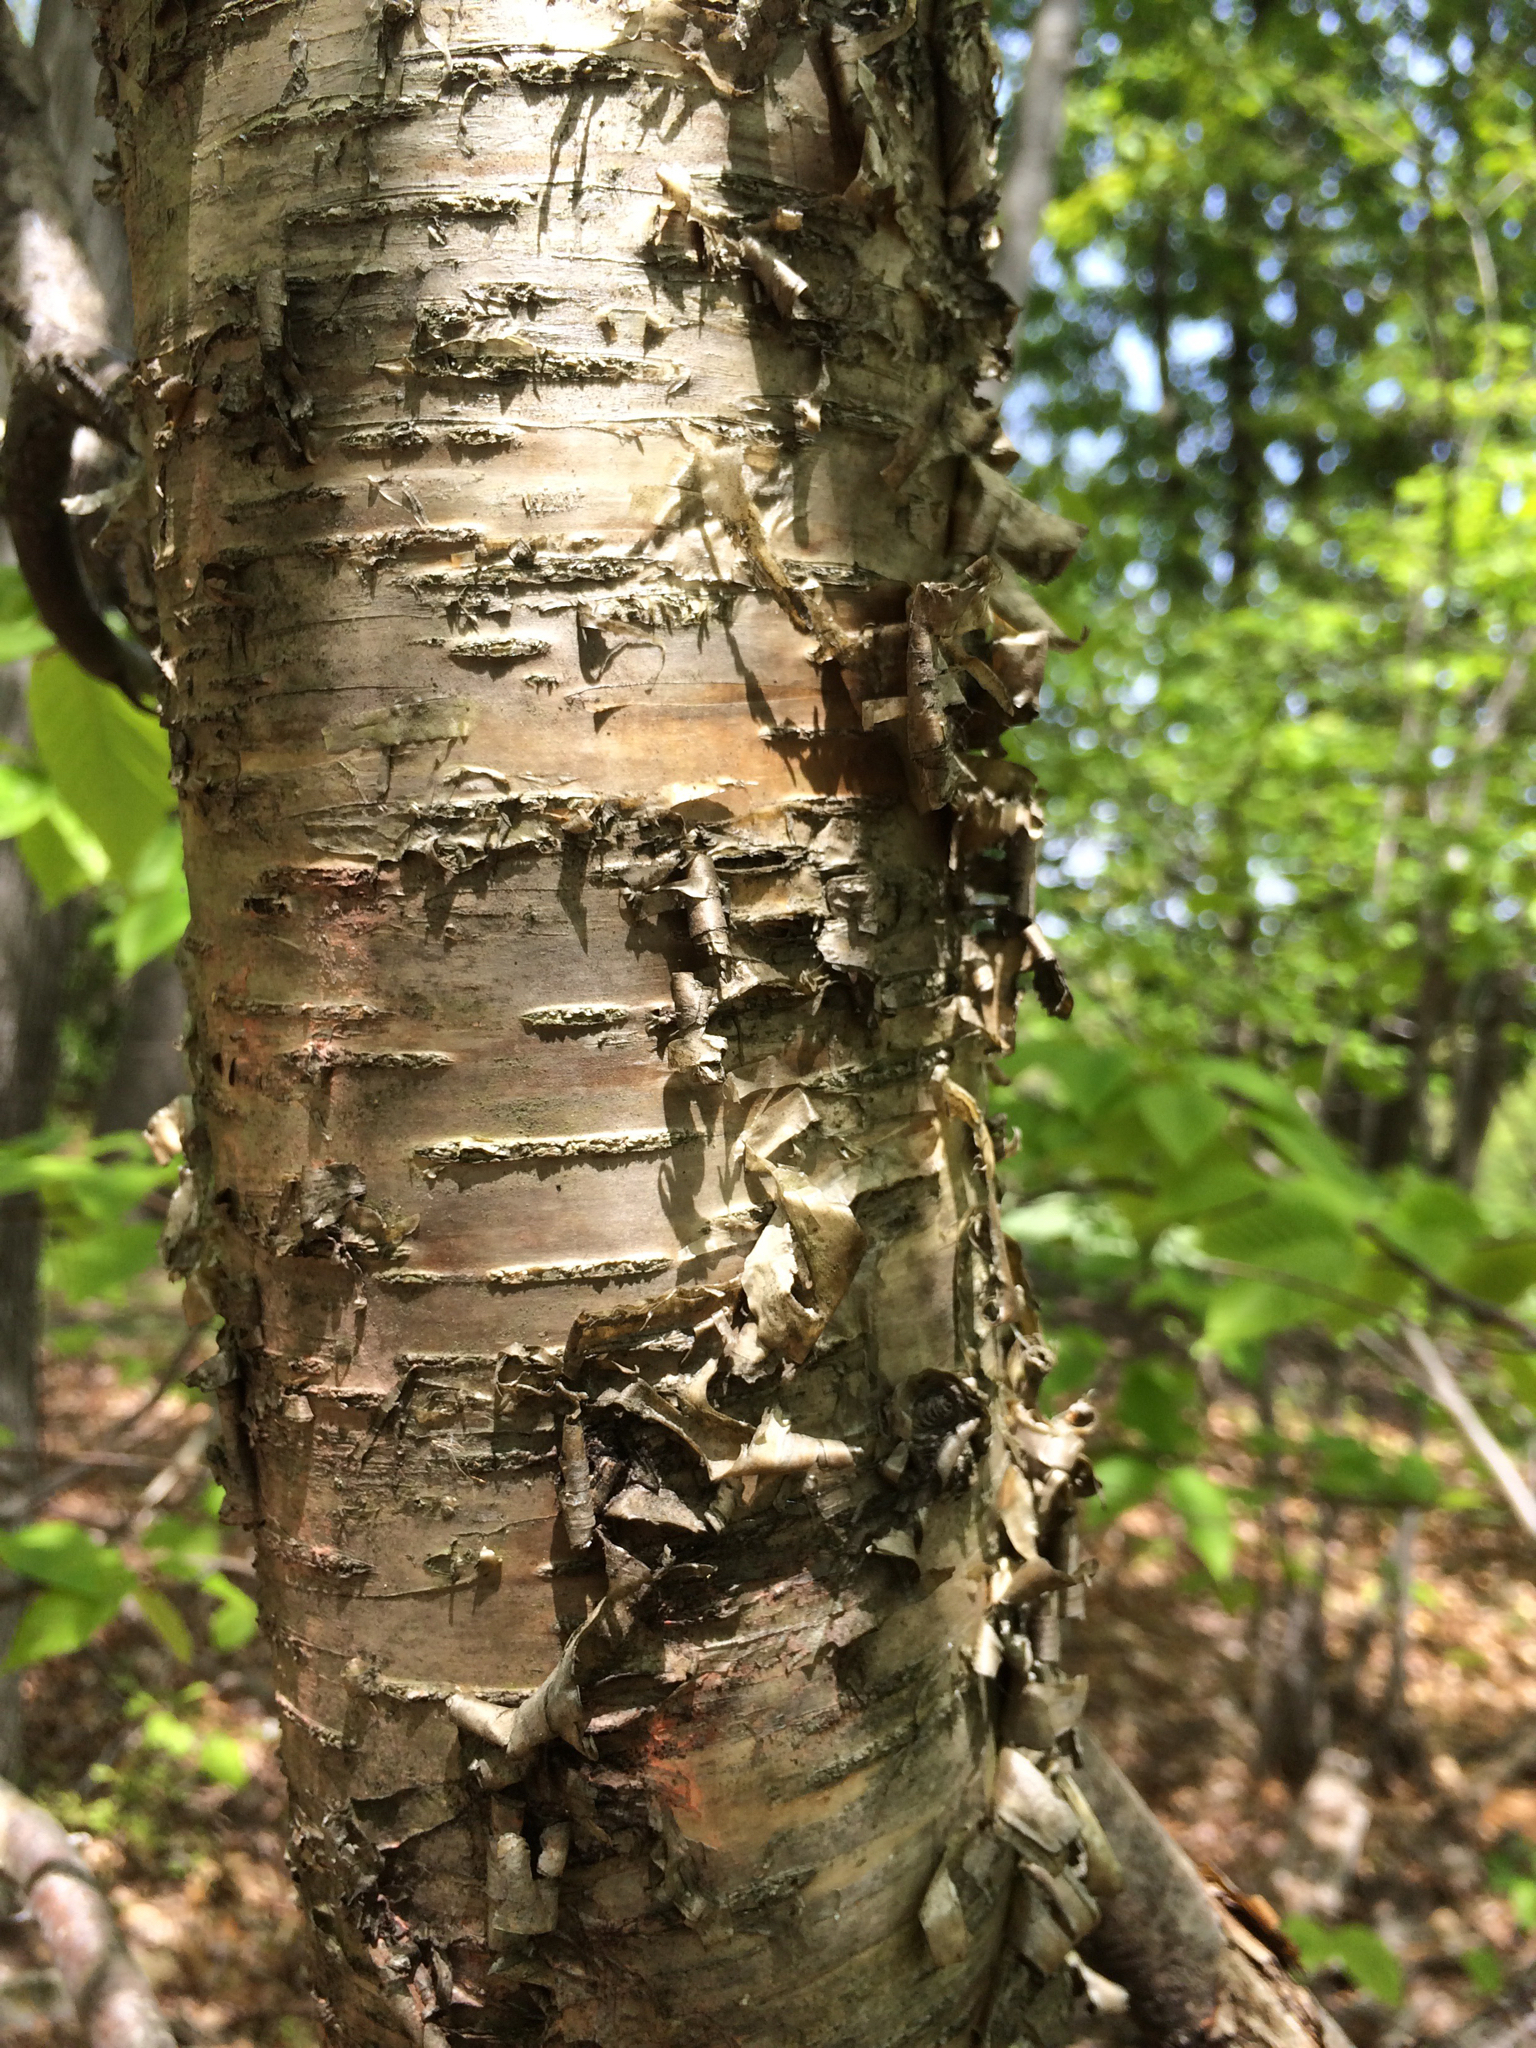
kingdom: Plantae
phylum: Tracheophyta
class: Magnoliopsida
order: Fagales
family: Betulaceae
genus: Betula
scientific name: Betula alleghaniensis
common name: Yellow birch
